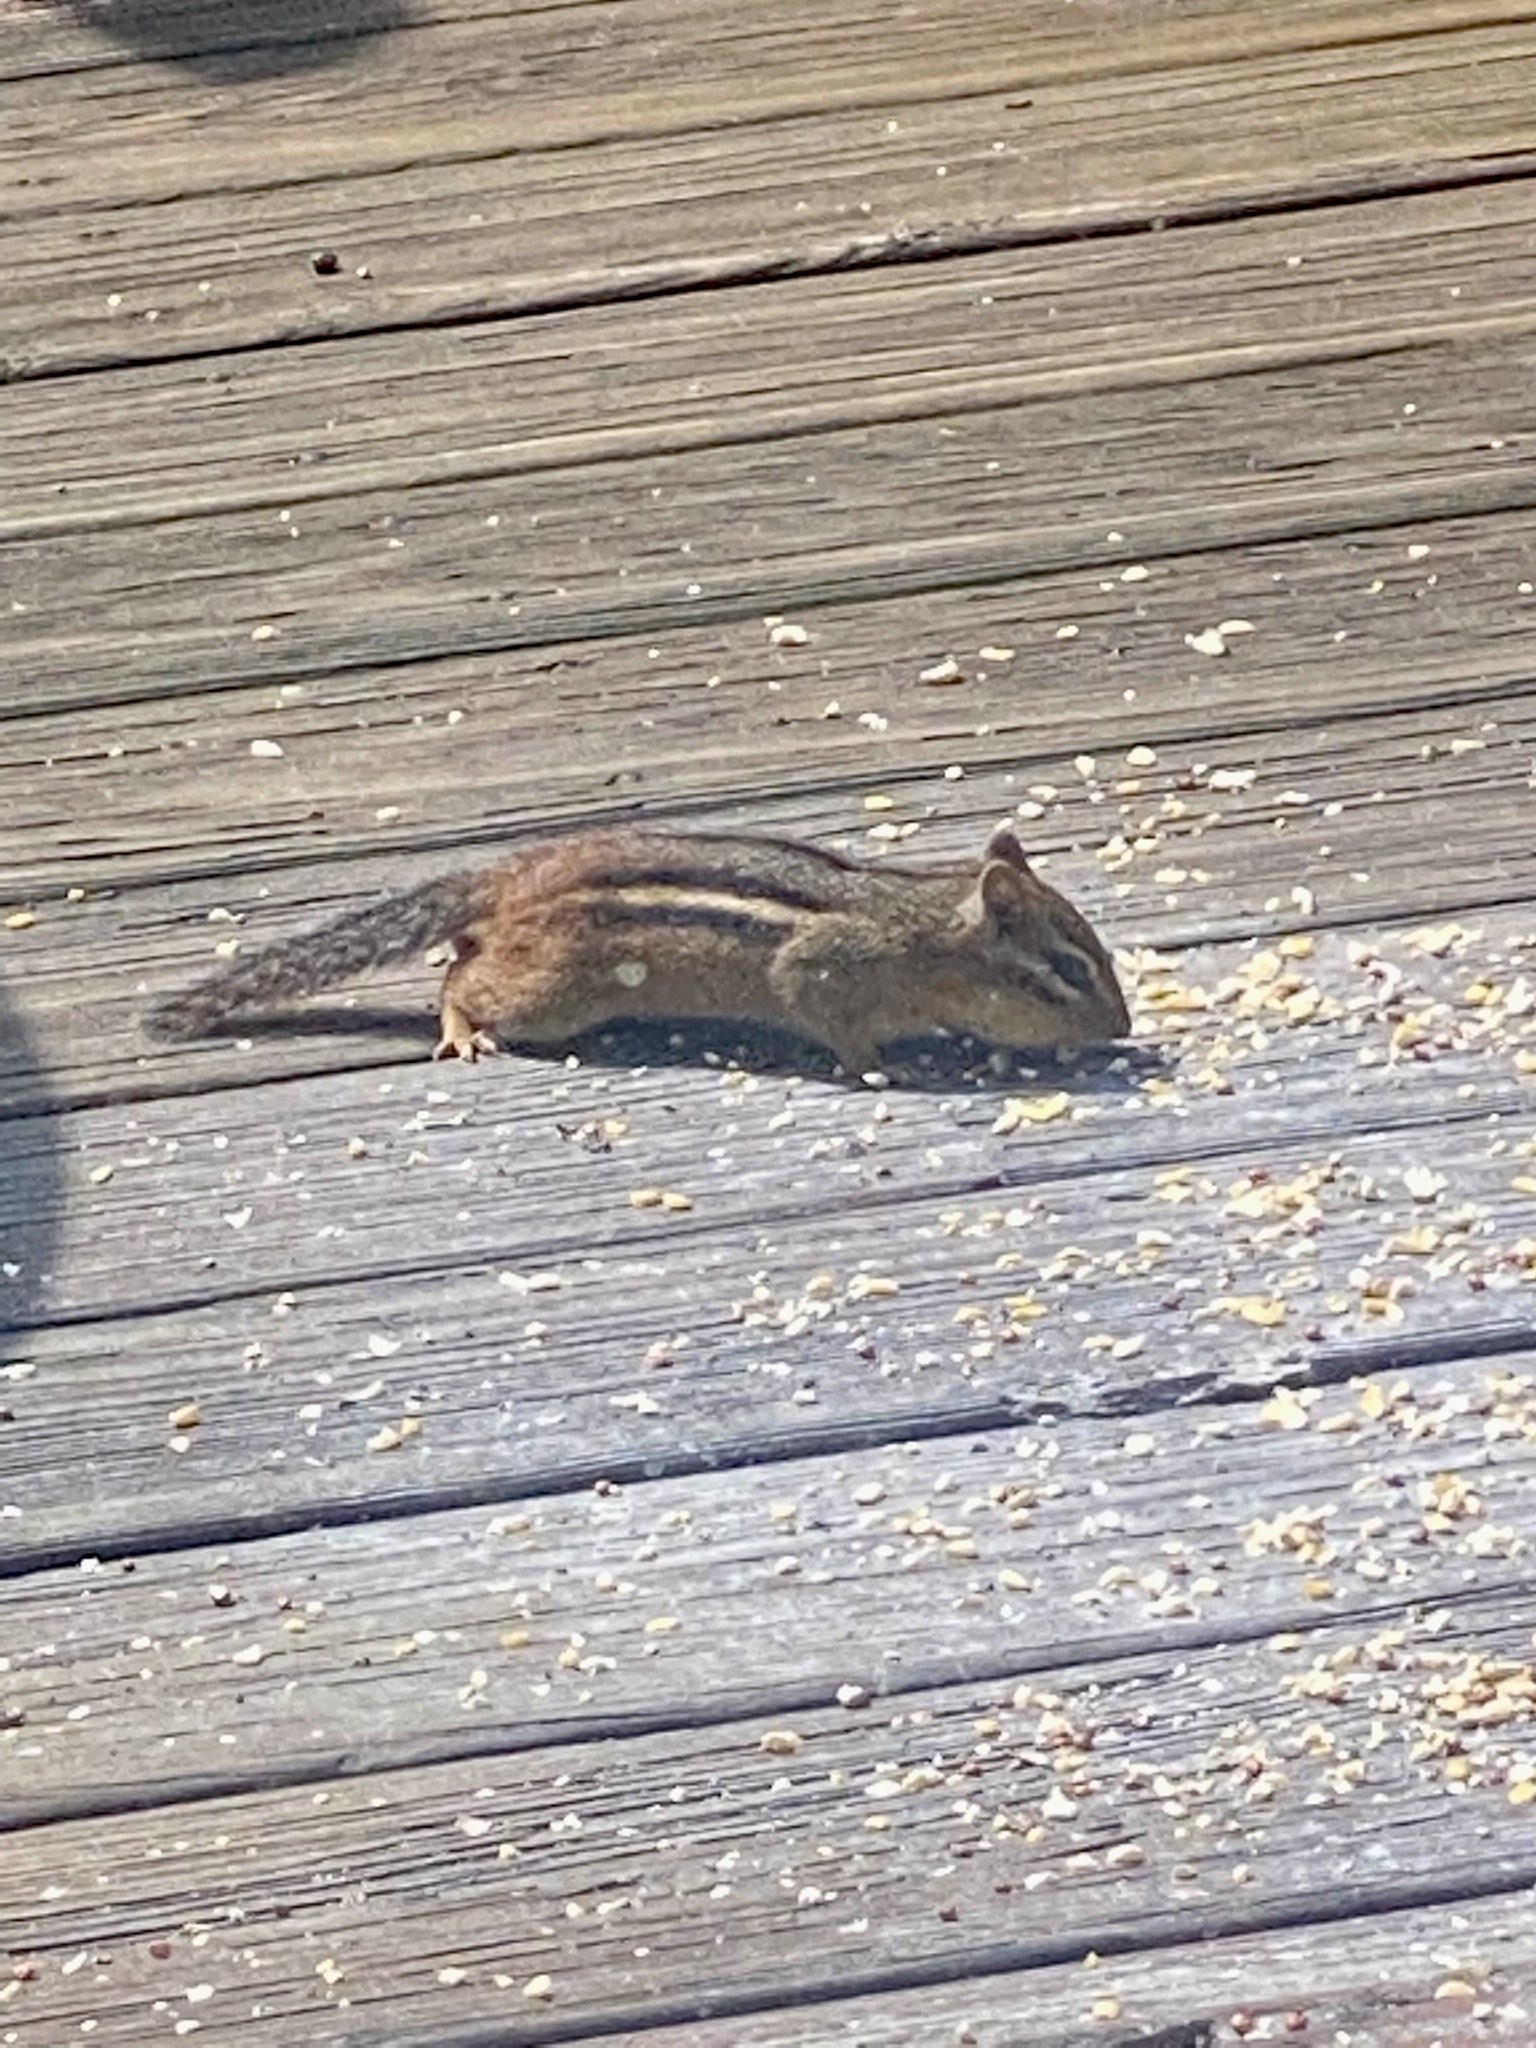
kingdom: Animalia
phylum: Chordata
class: Mammalia
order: Rodentia
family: Sciuridae
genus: Tamias
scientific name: Tamias striatus
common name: Eastern chipmunk
